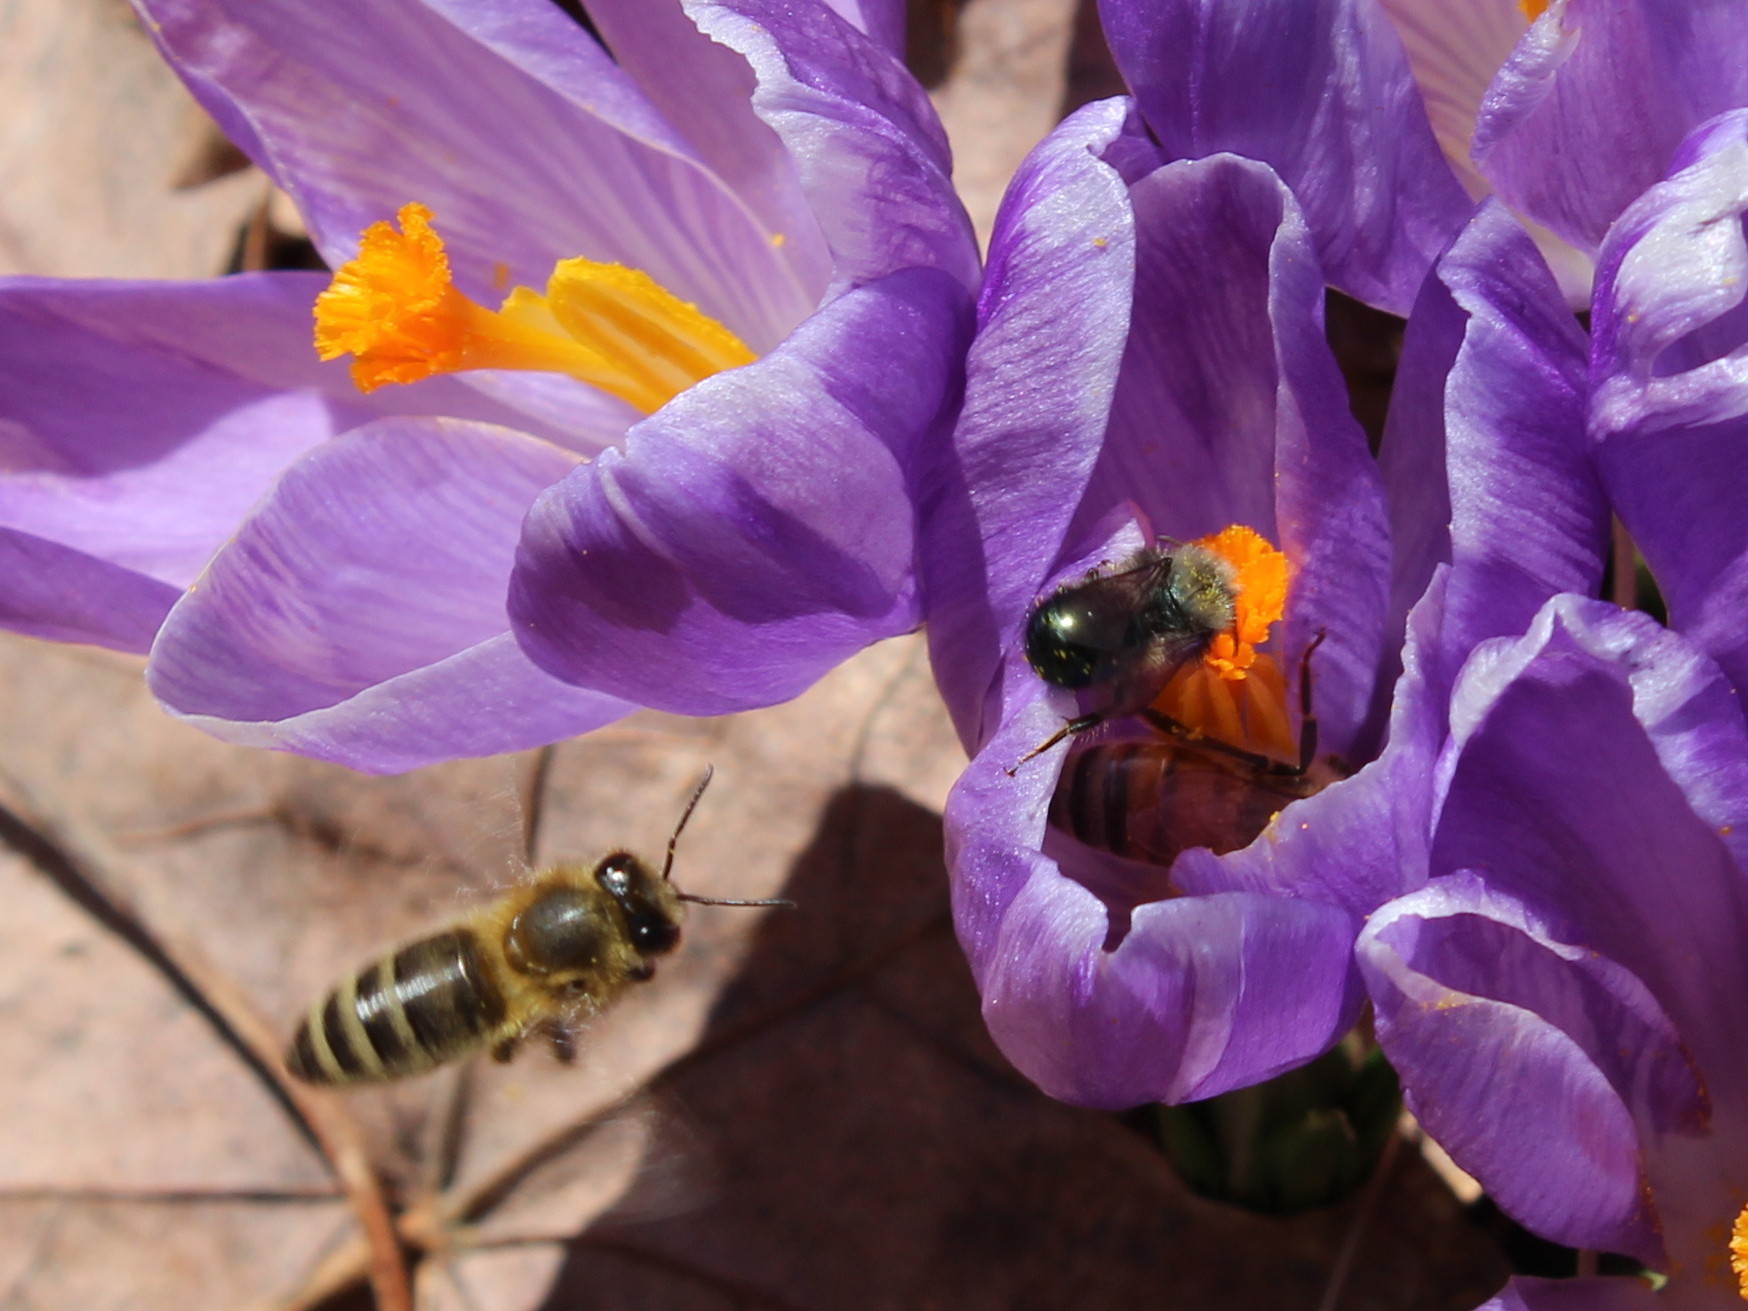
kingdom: Animalia
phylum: Arthropoda
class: Insecta
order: Hymenoptera
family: Apidae
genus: Apis
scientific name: Apis mellifera
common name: Honey bee
